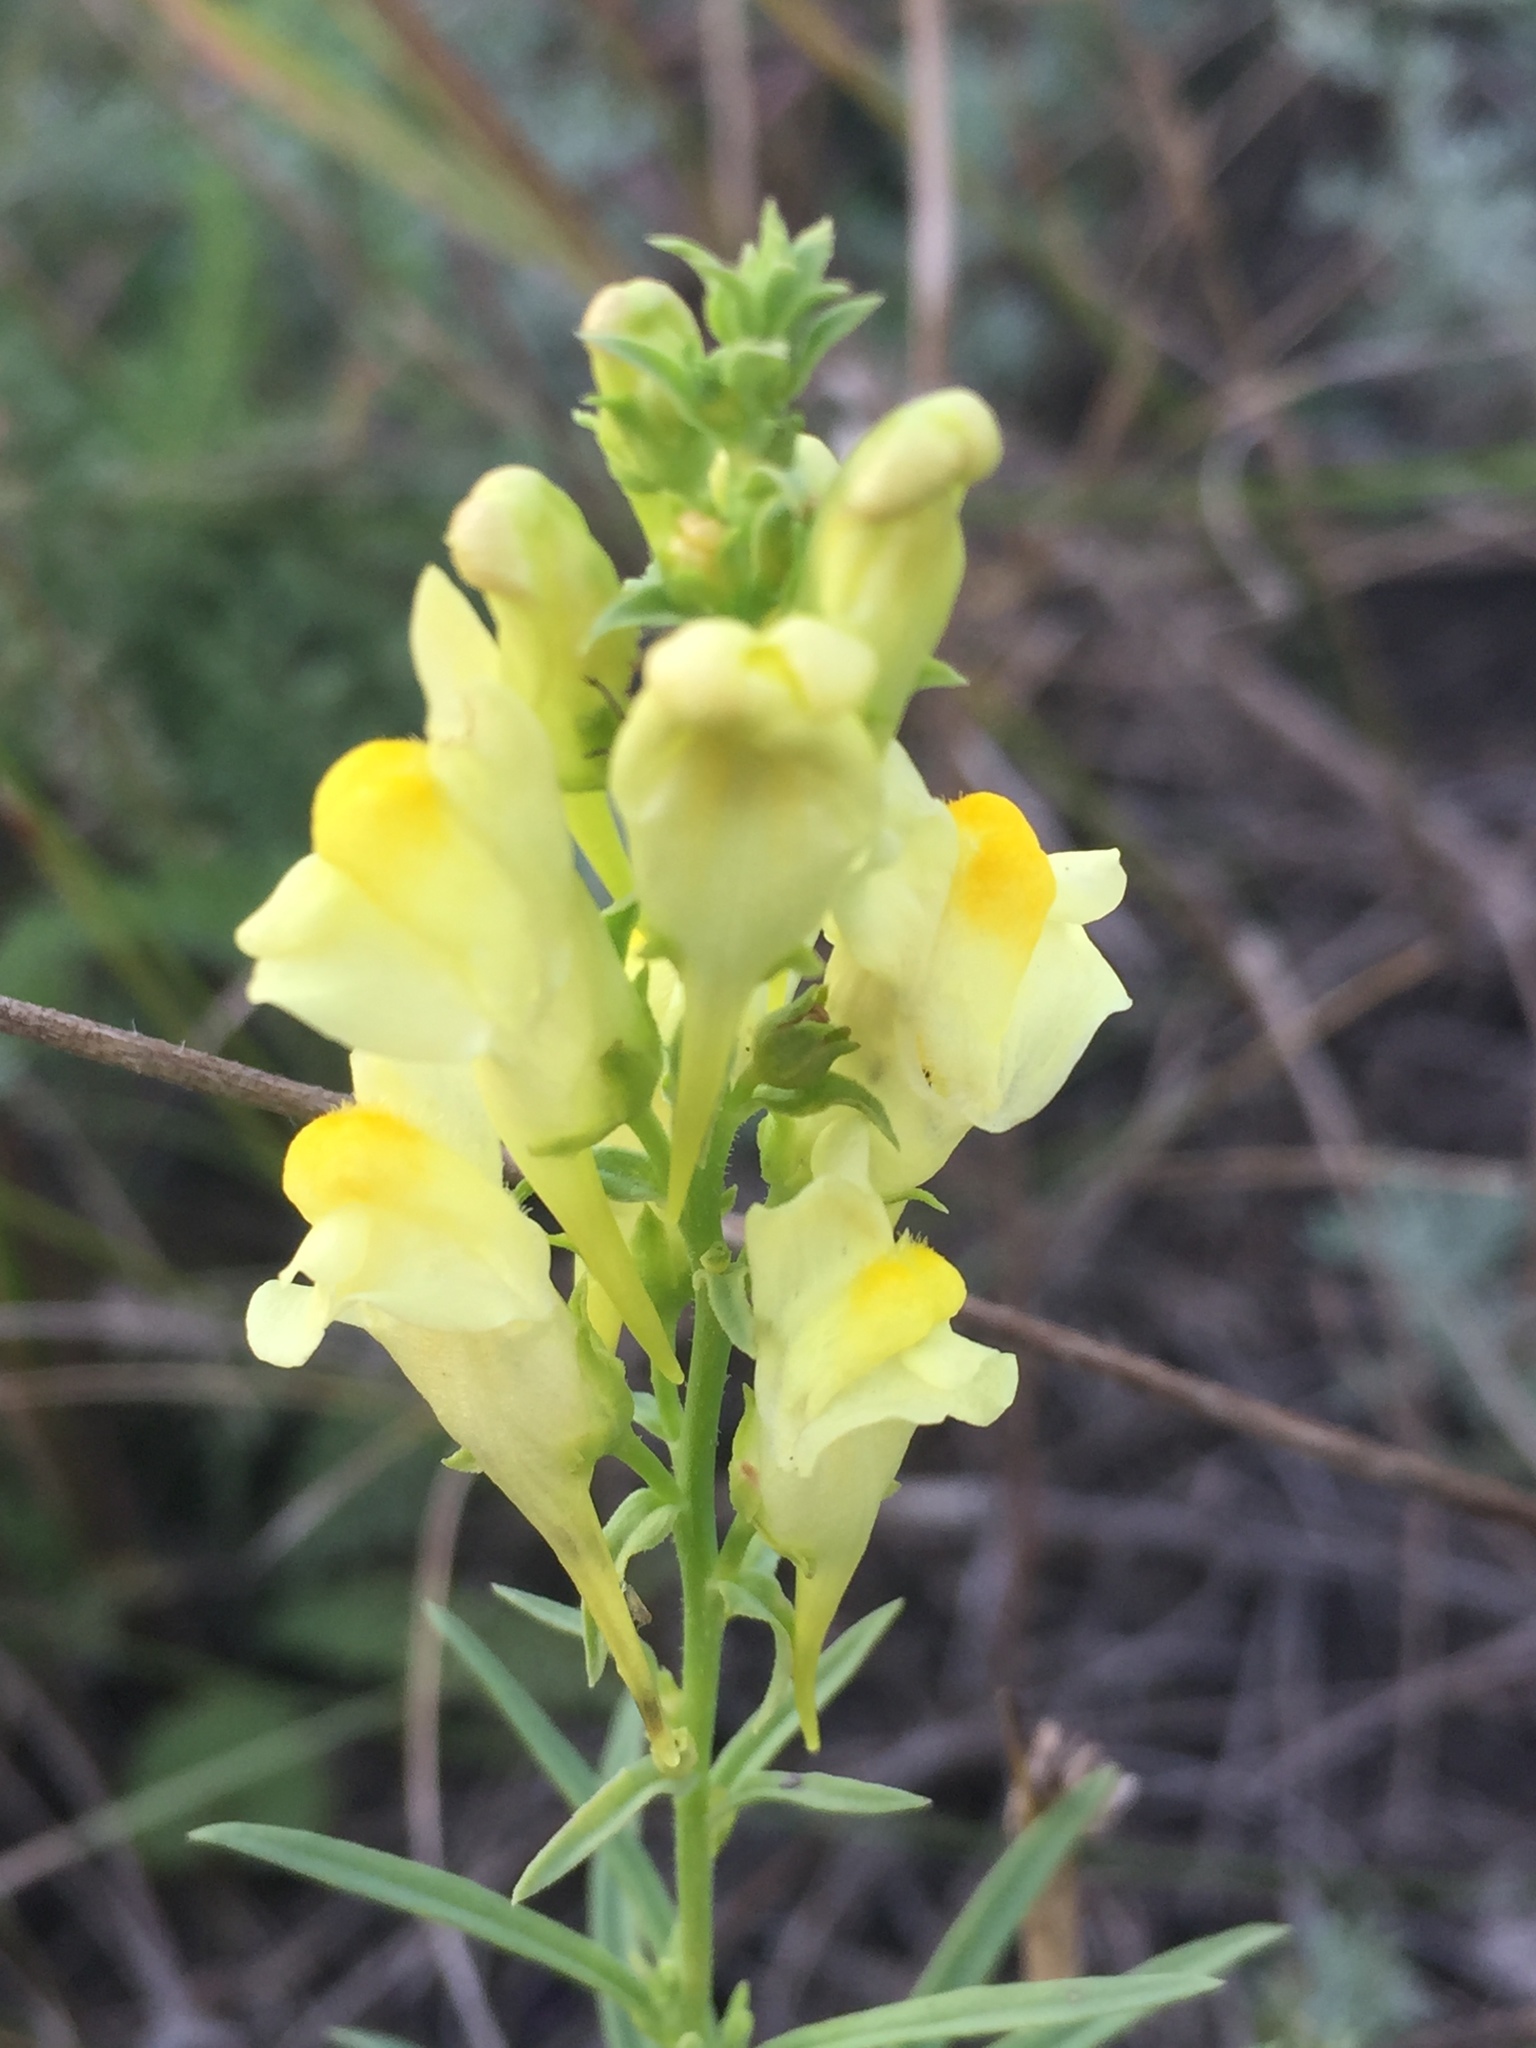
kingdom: Plantae
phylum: Tracheophyta
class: Magnoliopsida
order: Lamiales
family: Plantaginaceae
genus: Linaria
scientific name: Linaria vulgaris
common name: Butter and eggs
